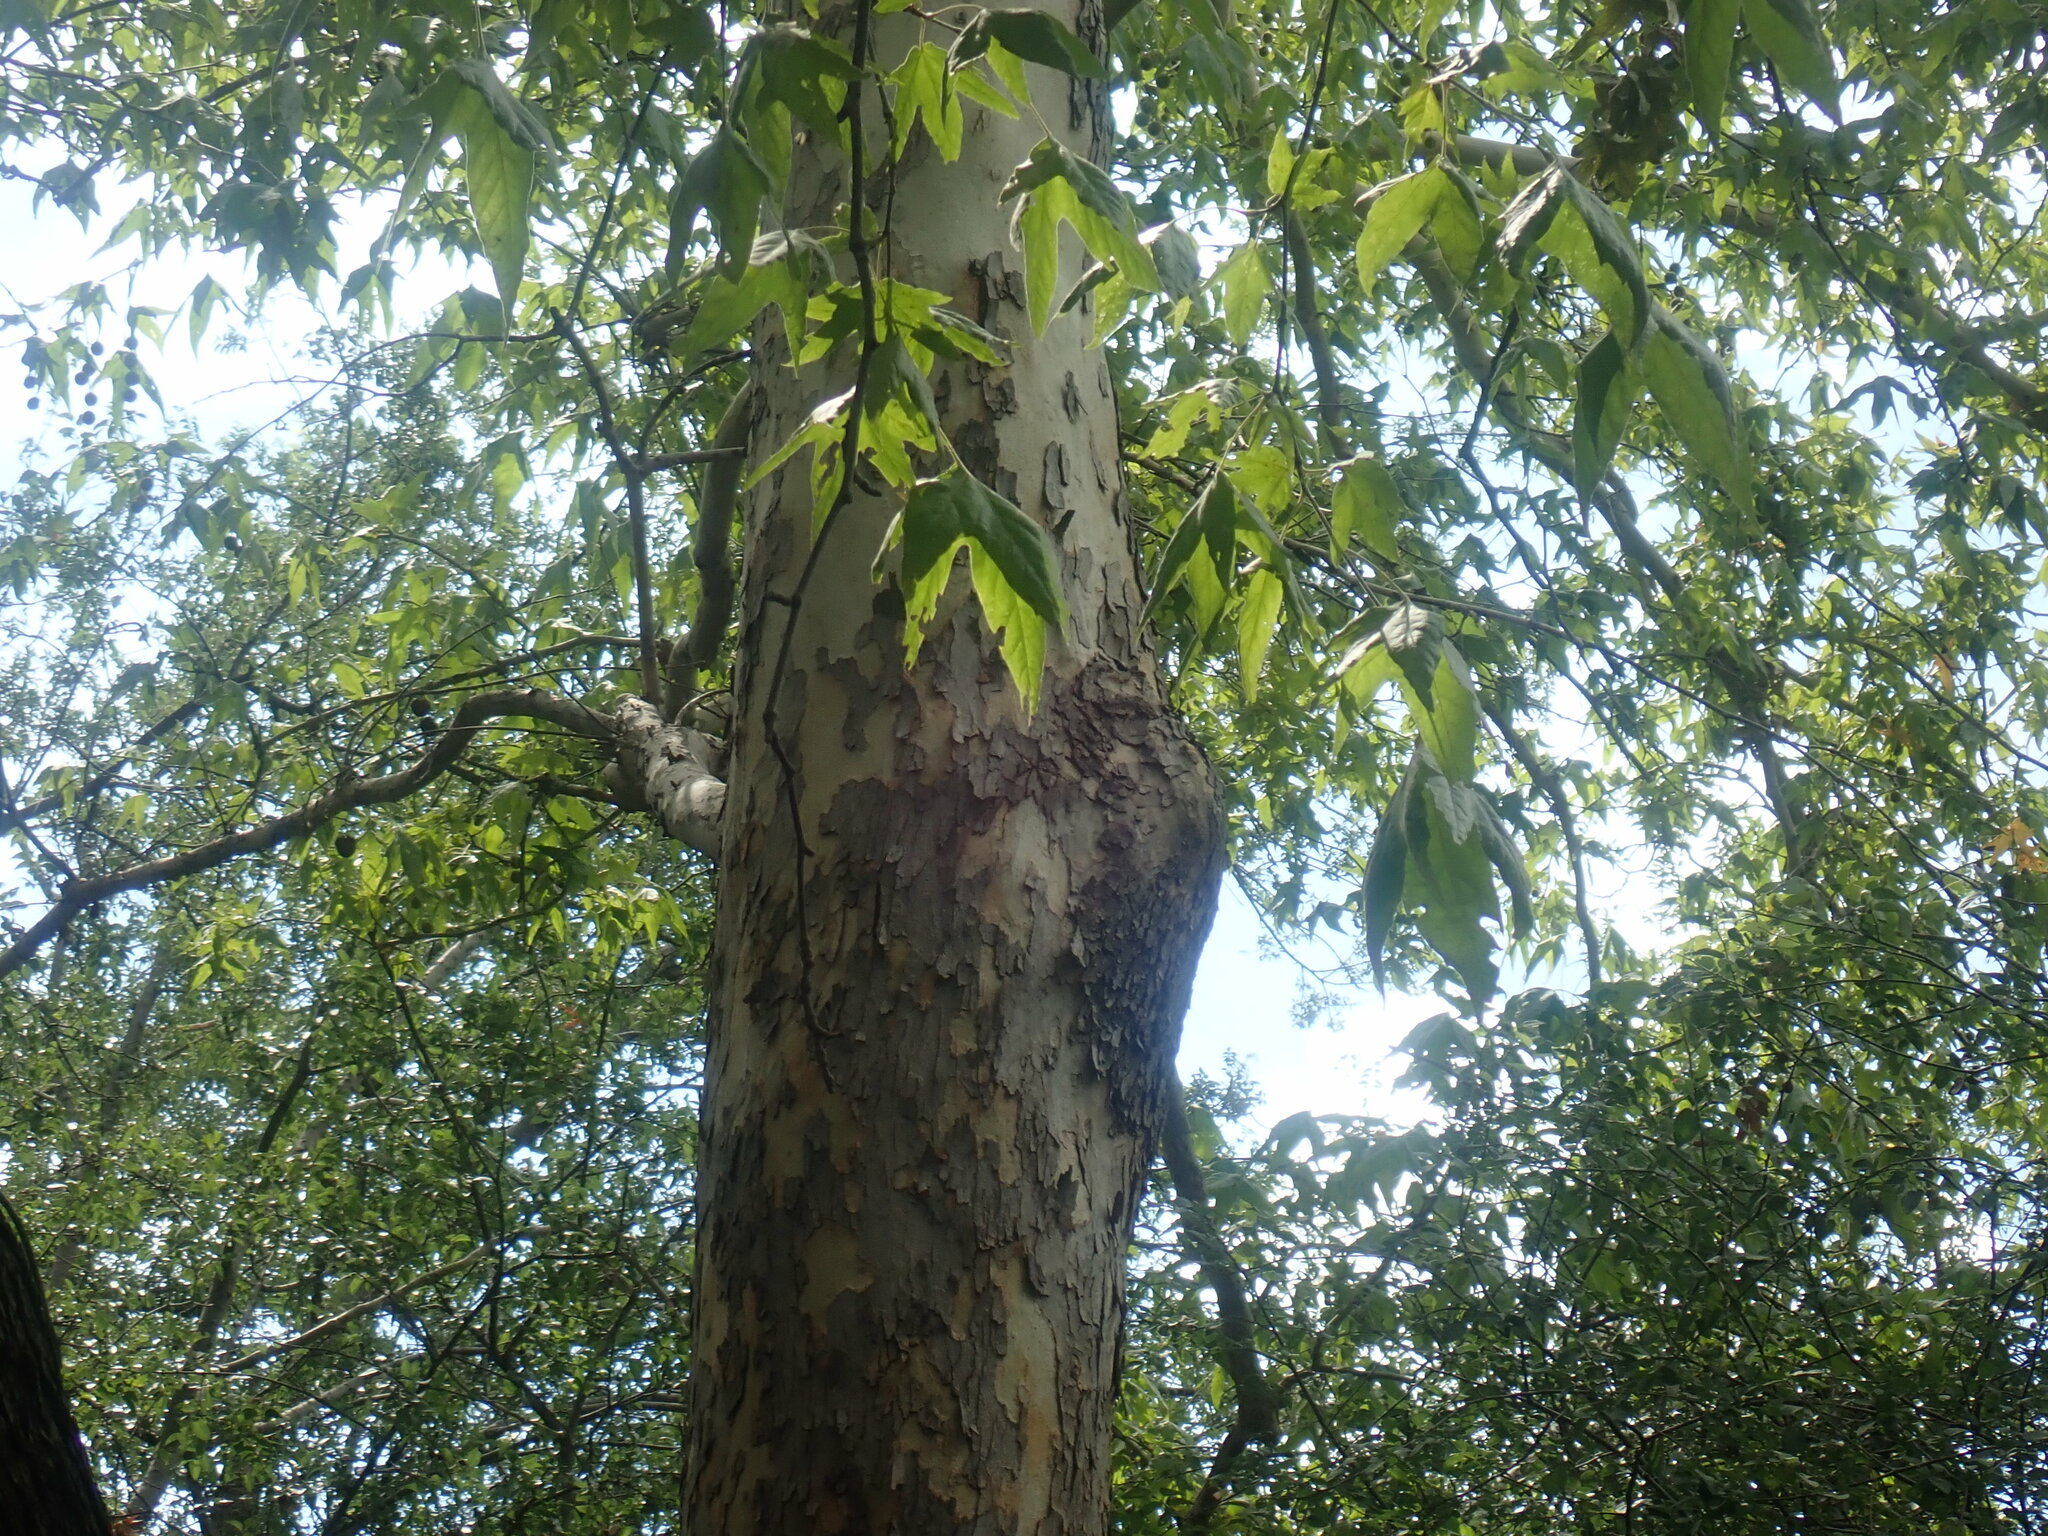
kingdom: Plantae
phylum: Tracheophyta
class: Magnoliopsida
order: Proteales
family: Platanaceae
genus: Platanus
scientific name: Platanus wrightii
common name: Arizona sycamore
